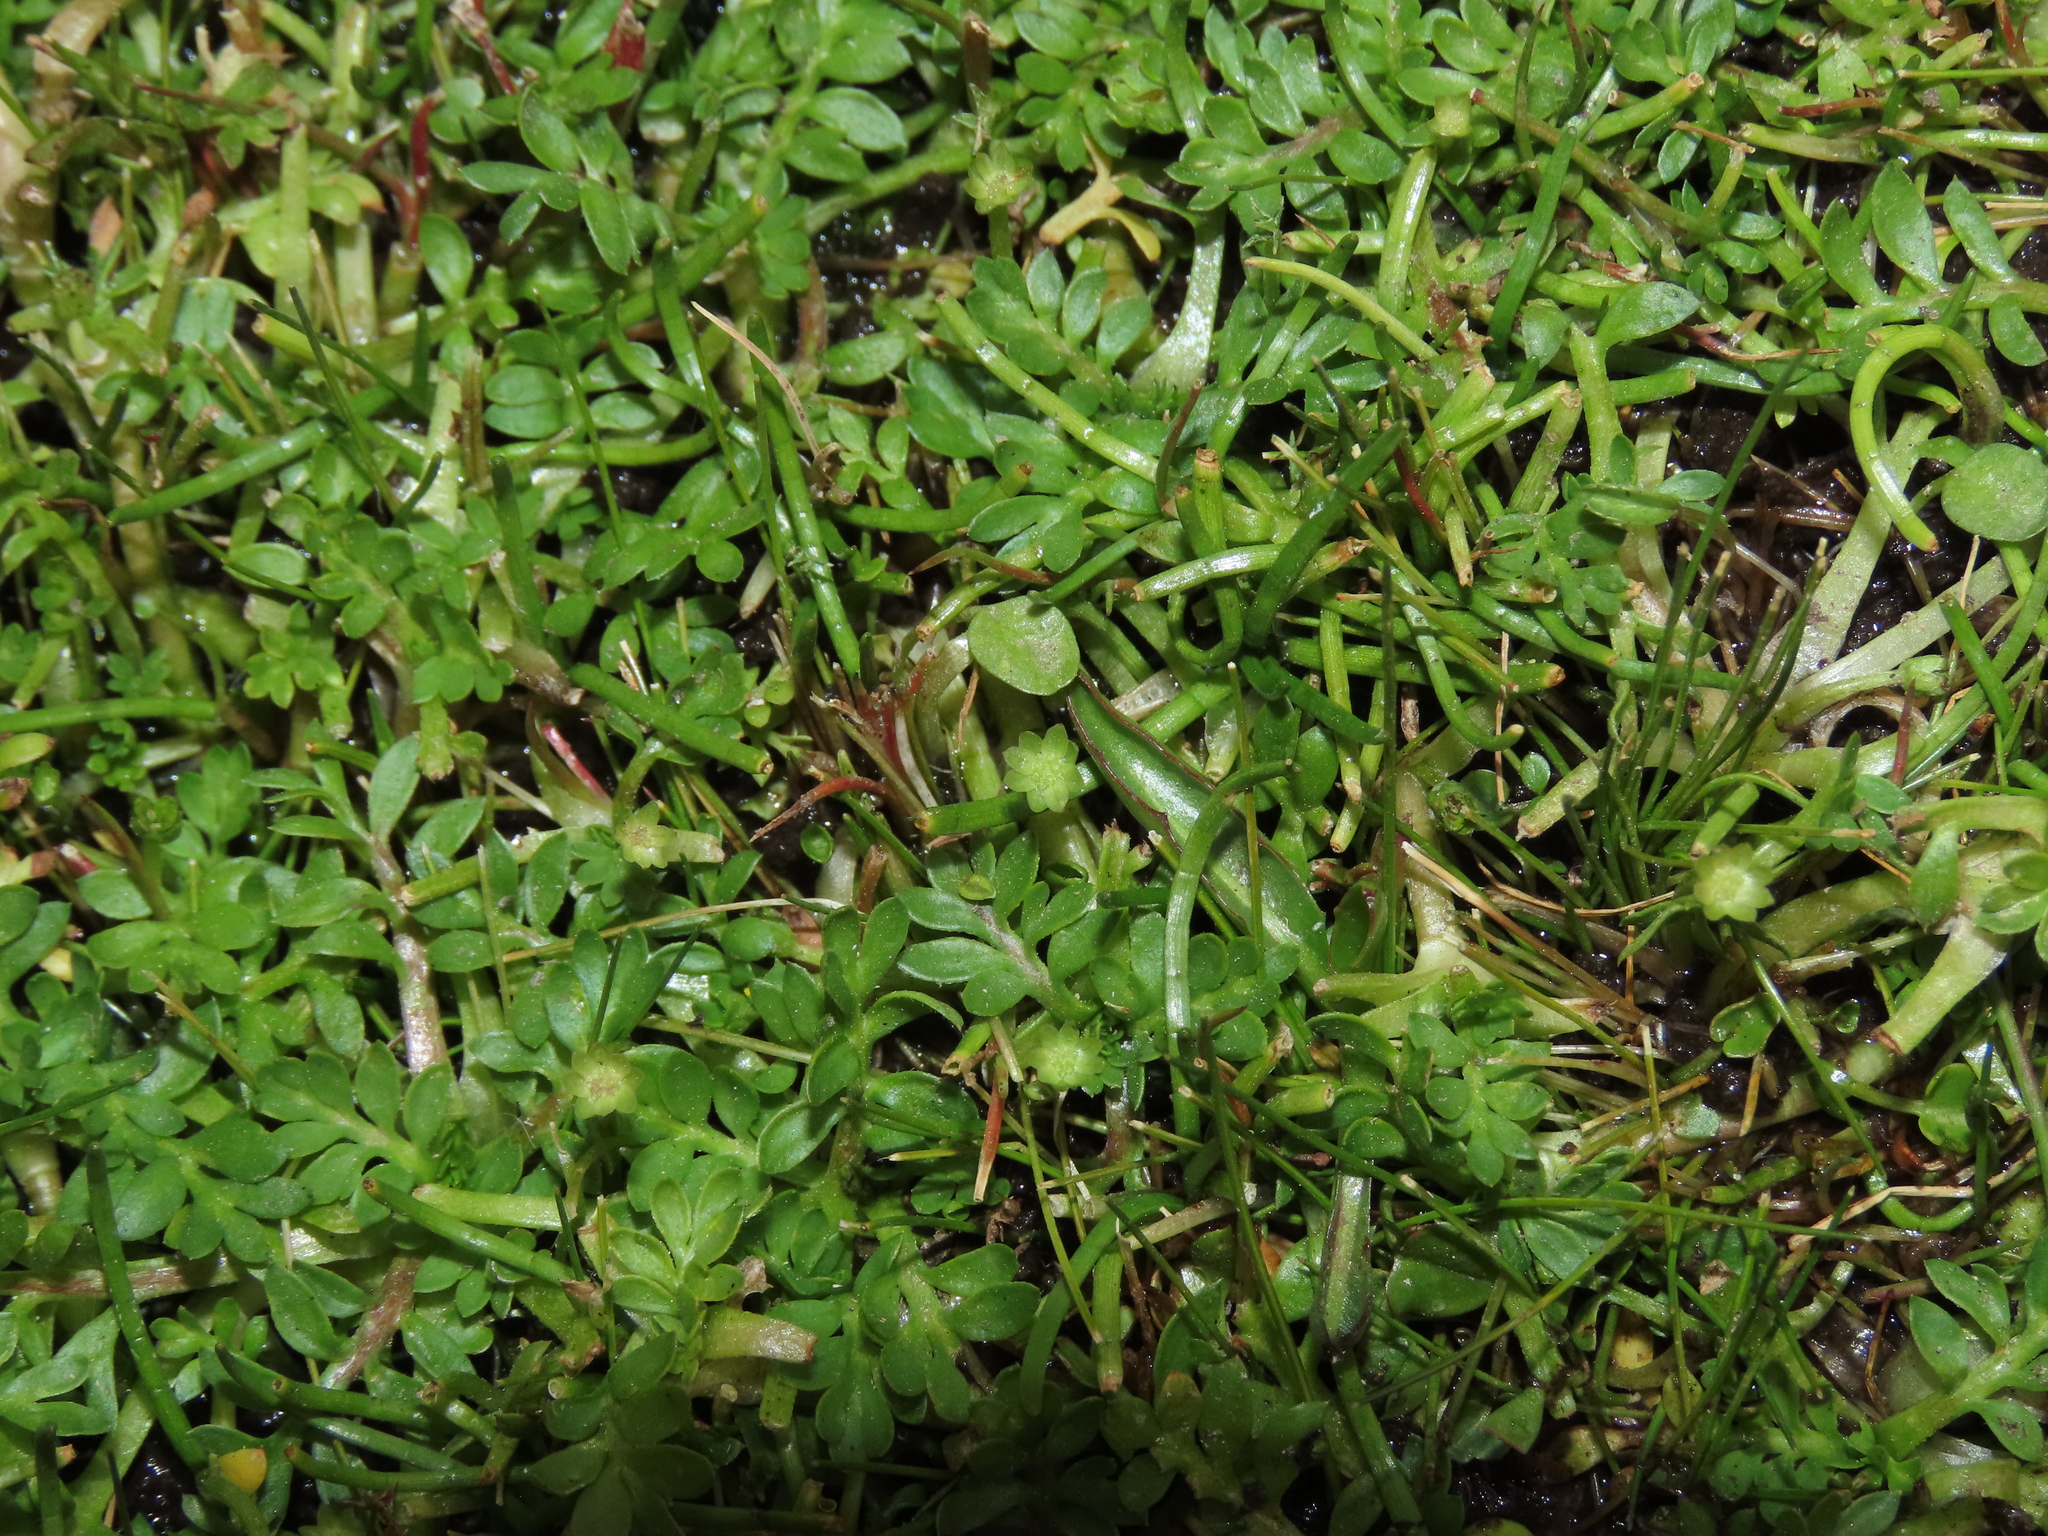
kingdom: Plantae
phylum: Tracheophyta
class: Magnoliopsida
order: Asterales
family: Asteraceae
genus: Soliva
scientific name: Soliva mexicana
